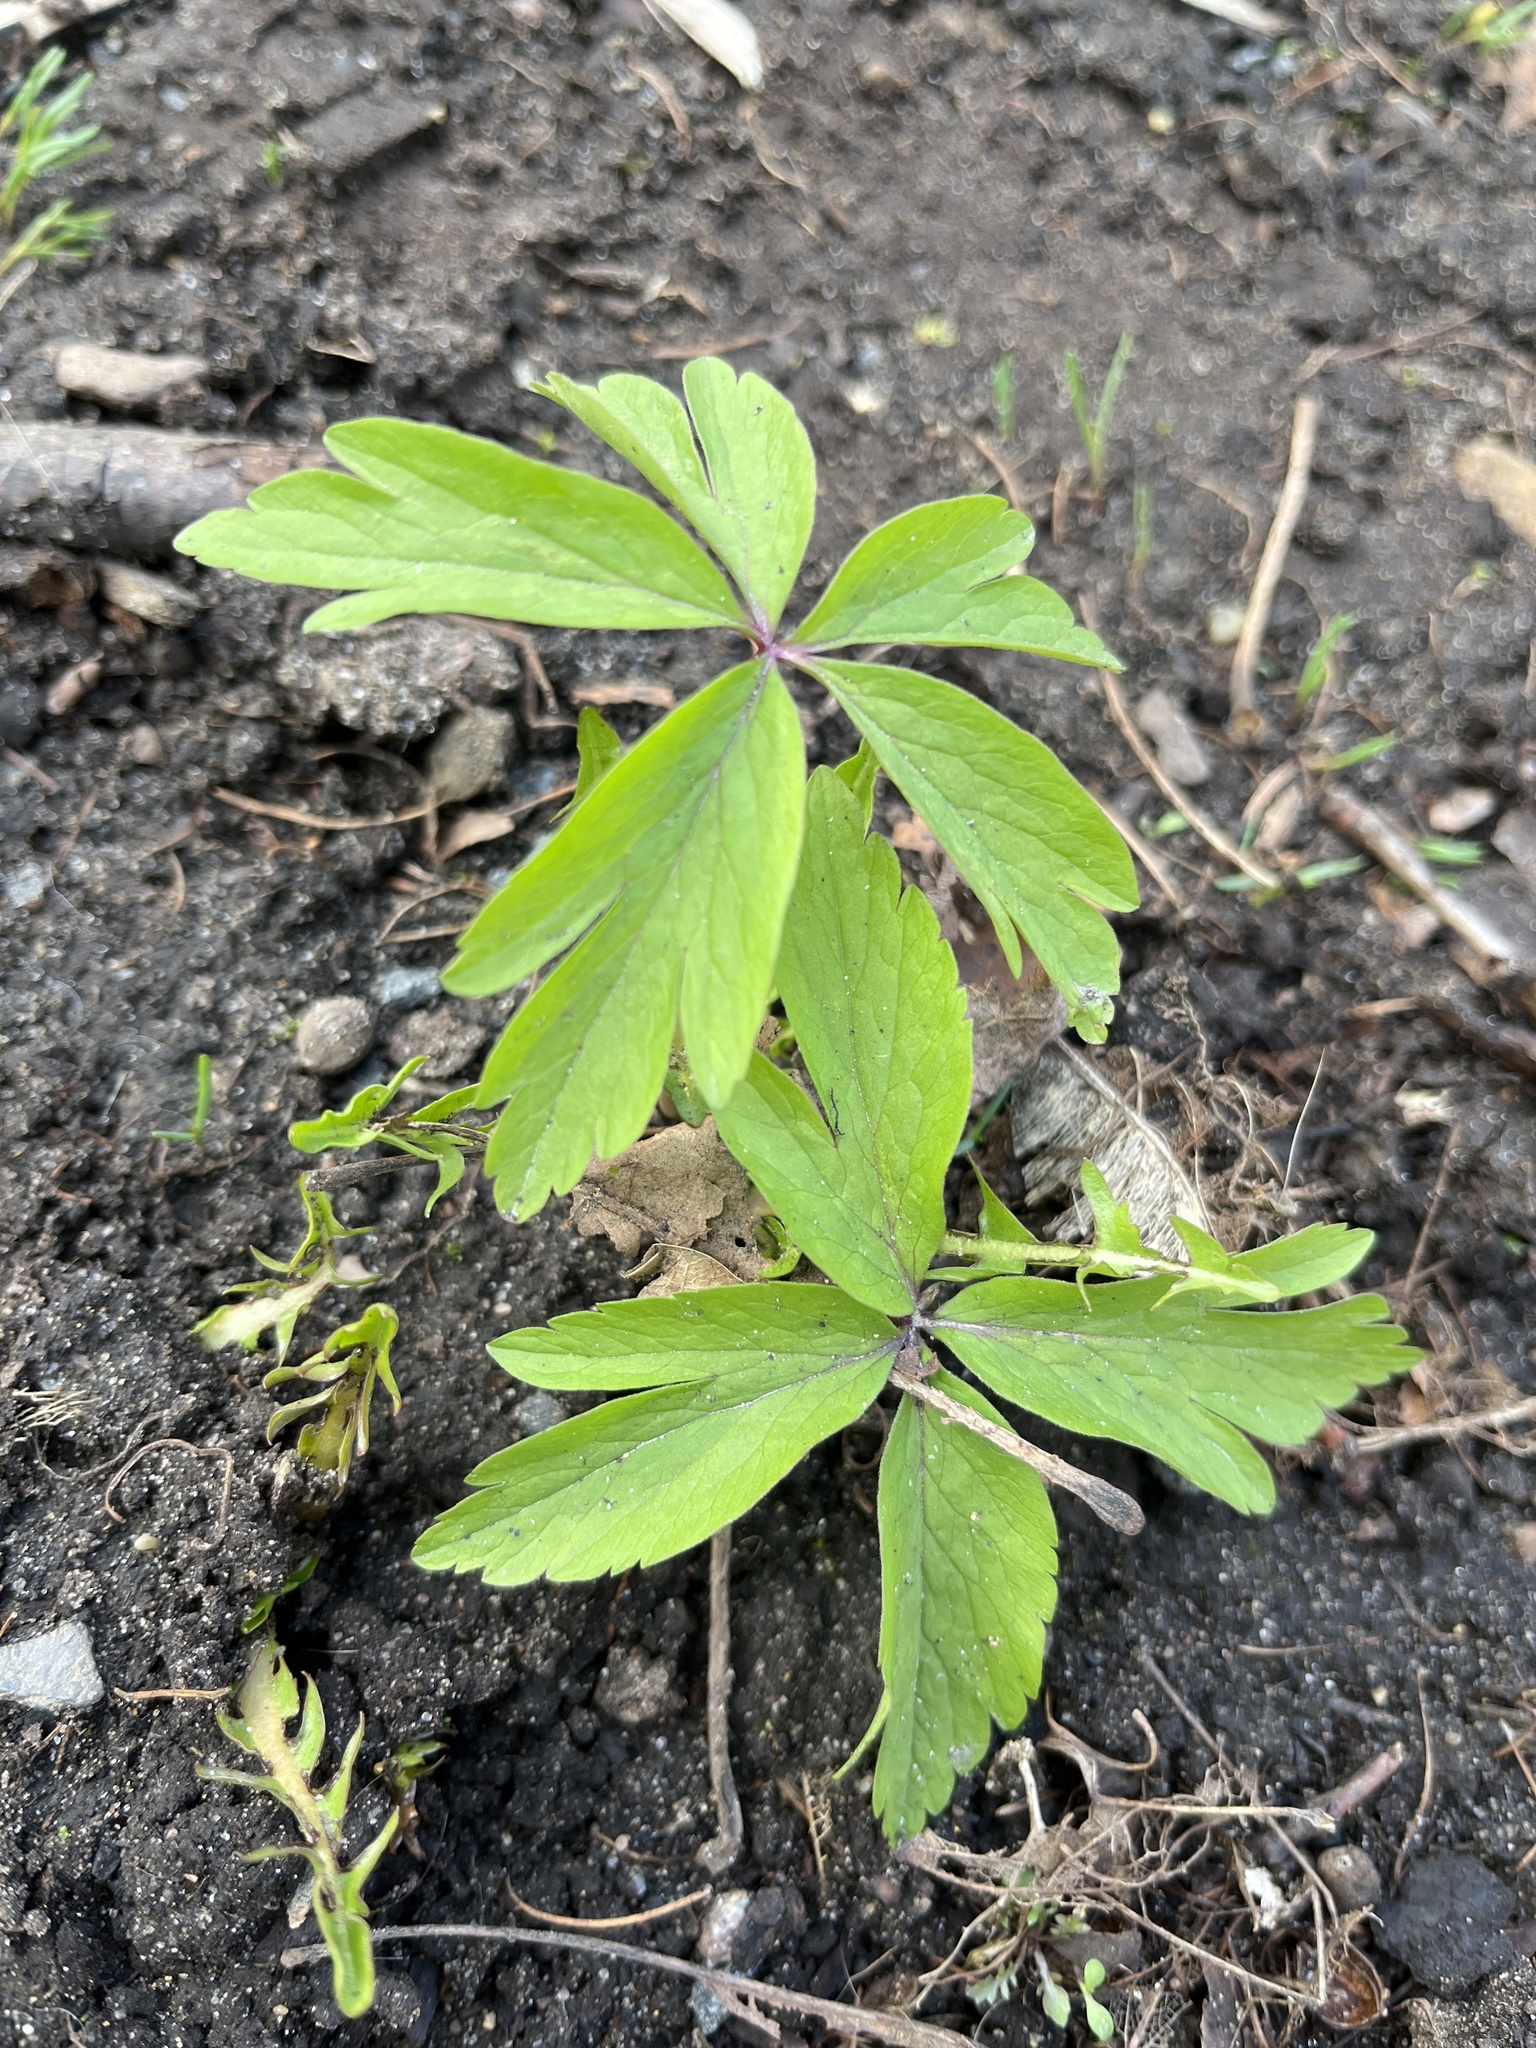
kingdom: Plantae
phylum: Tracheophyta
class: Magnoliopsida
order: Ranunculales
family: Ranunculaceae
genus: Anemone
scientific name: Anemone ranunculoides
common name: Yellow anemone
